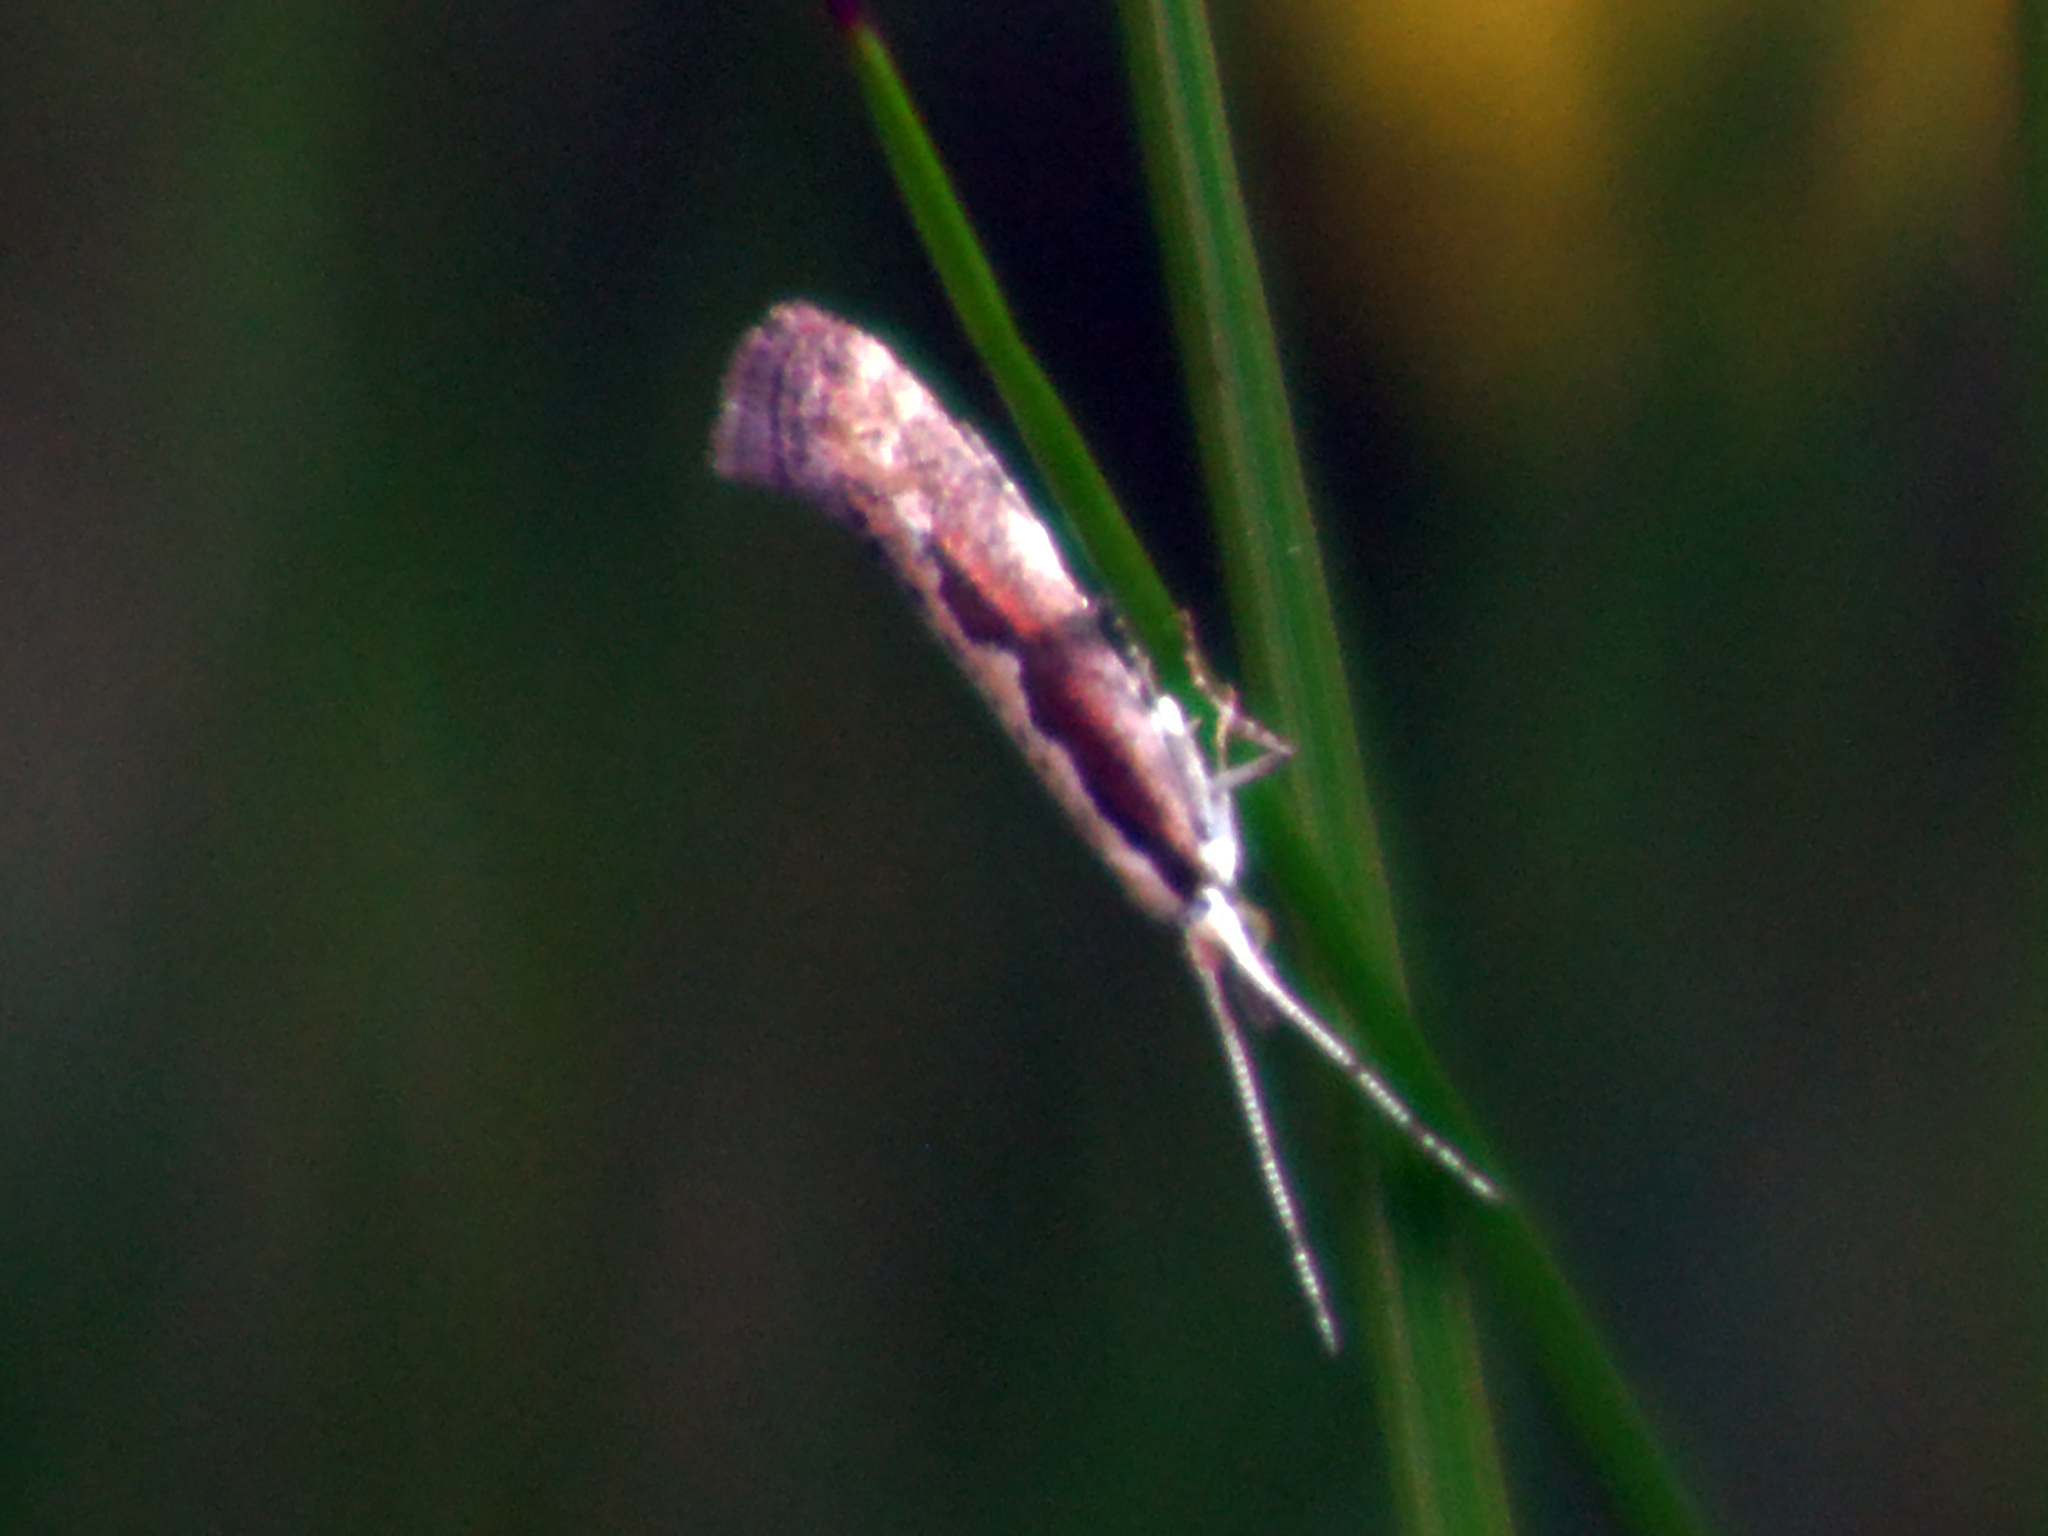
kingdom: Animalia
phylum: Arthropoda
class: Insecta
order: Lepidoptera
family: Plutellidae
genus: Plutella
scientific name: Plutella xylostella
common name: Diamond-back moth
